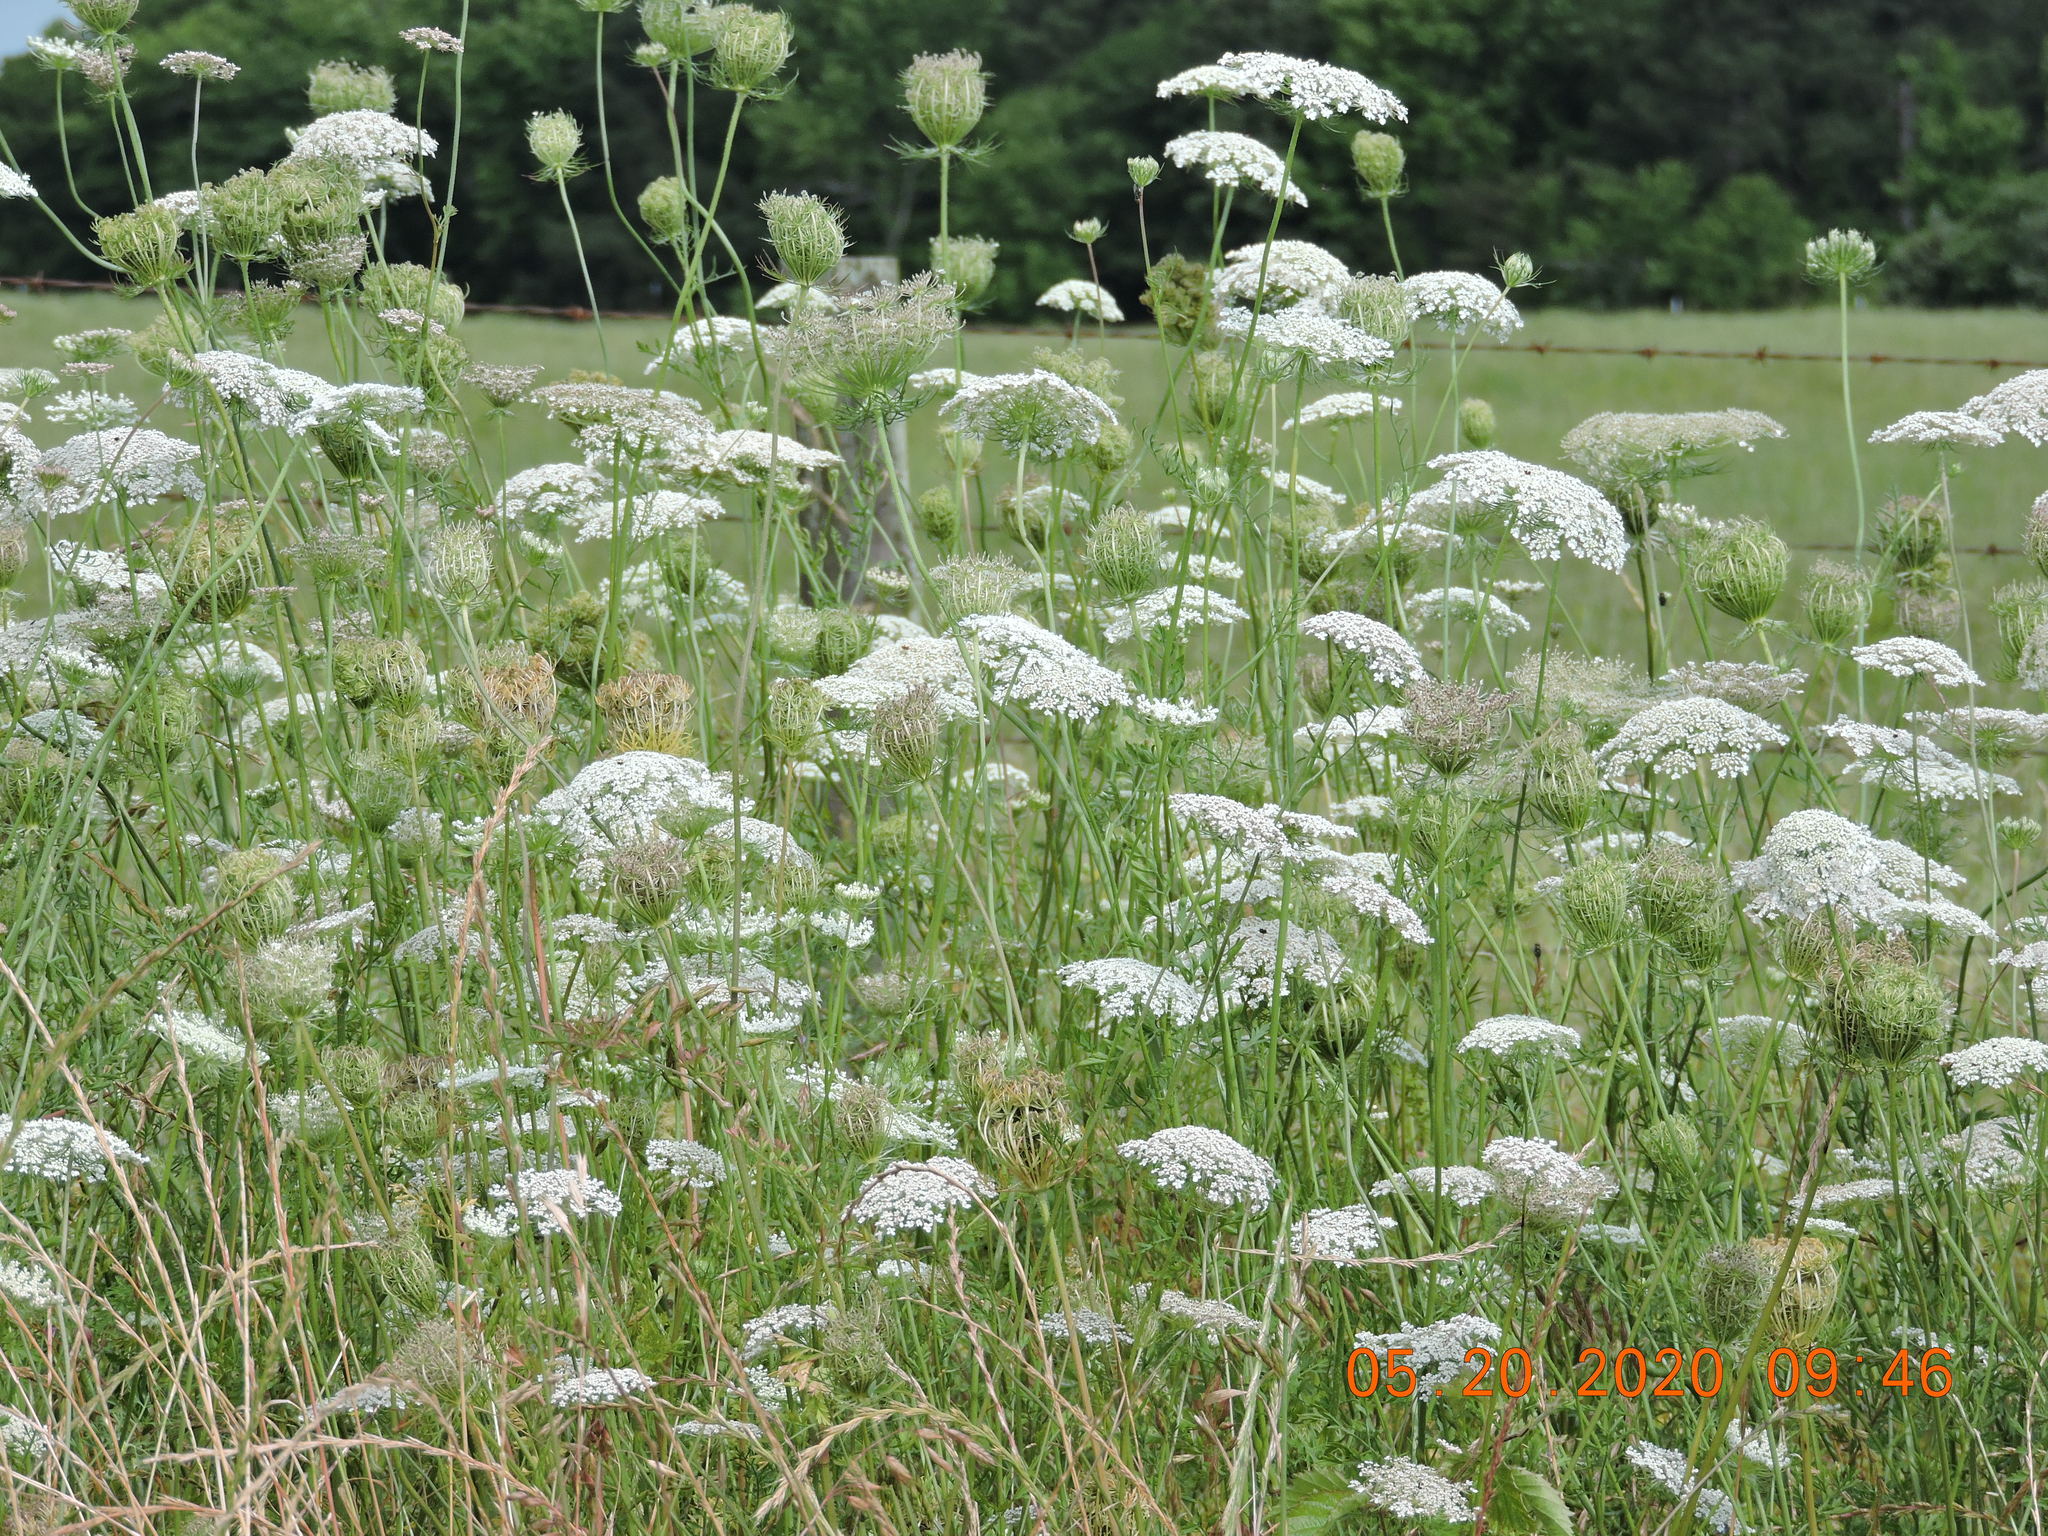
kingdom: Plantae
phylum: Tracheophyta
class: Magnoliopsida
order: Apiales
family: Apiaceae
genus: Daucus
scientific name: Daucus carota
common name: Wild carrot
